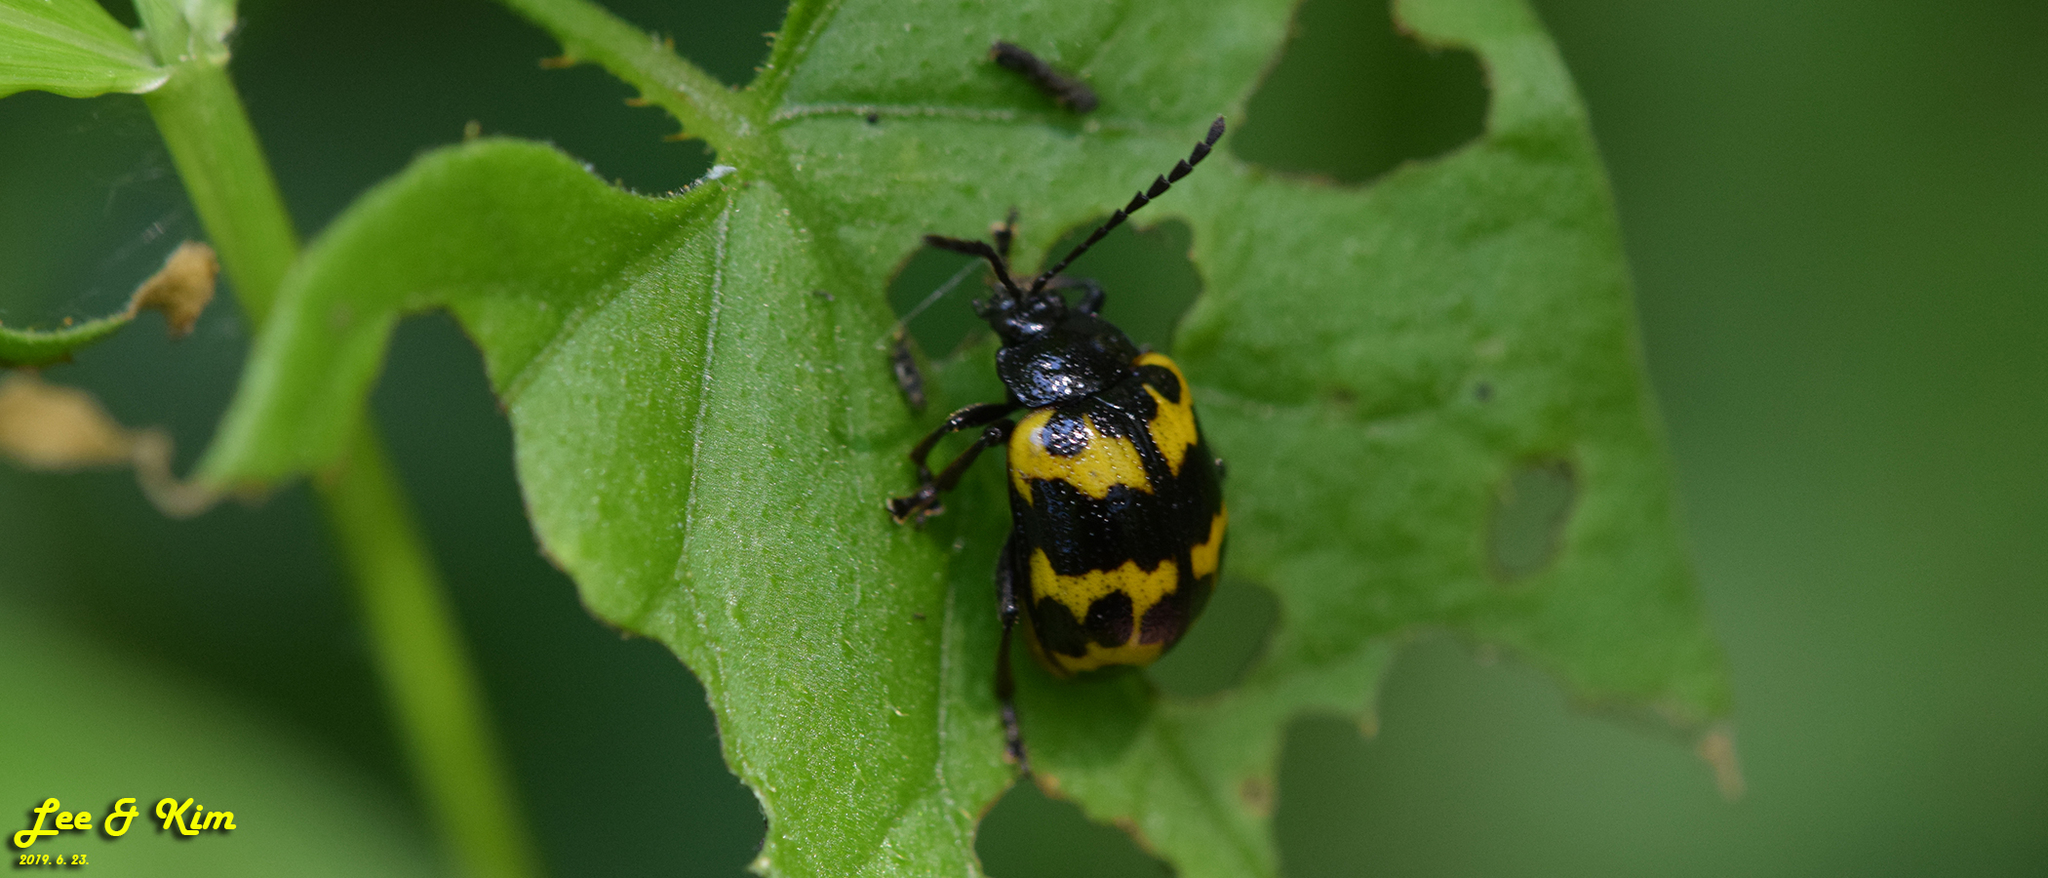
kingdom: Animalia
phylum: Arthropoda
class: Insecta
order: Coleoptera
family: Chrysomelidae
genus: Gallerucida
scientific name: Gallerucida bifasciata
